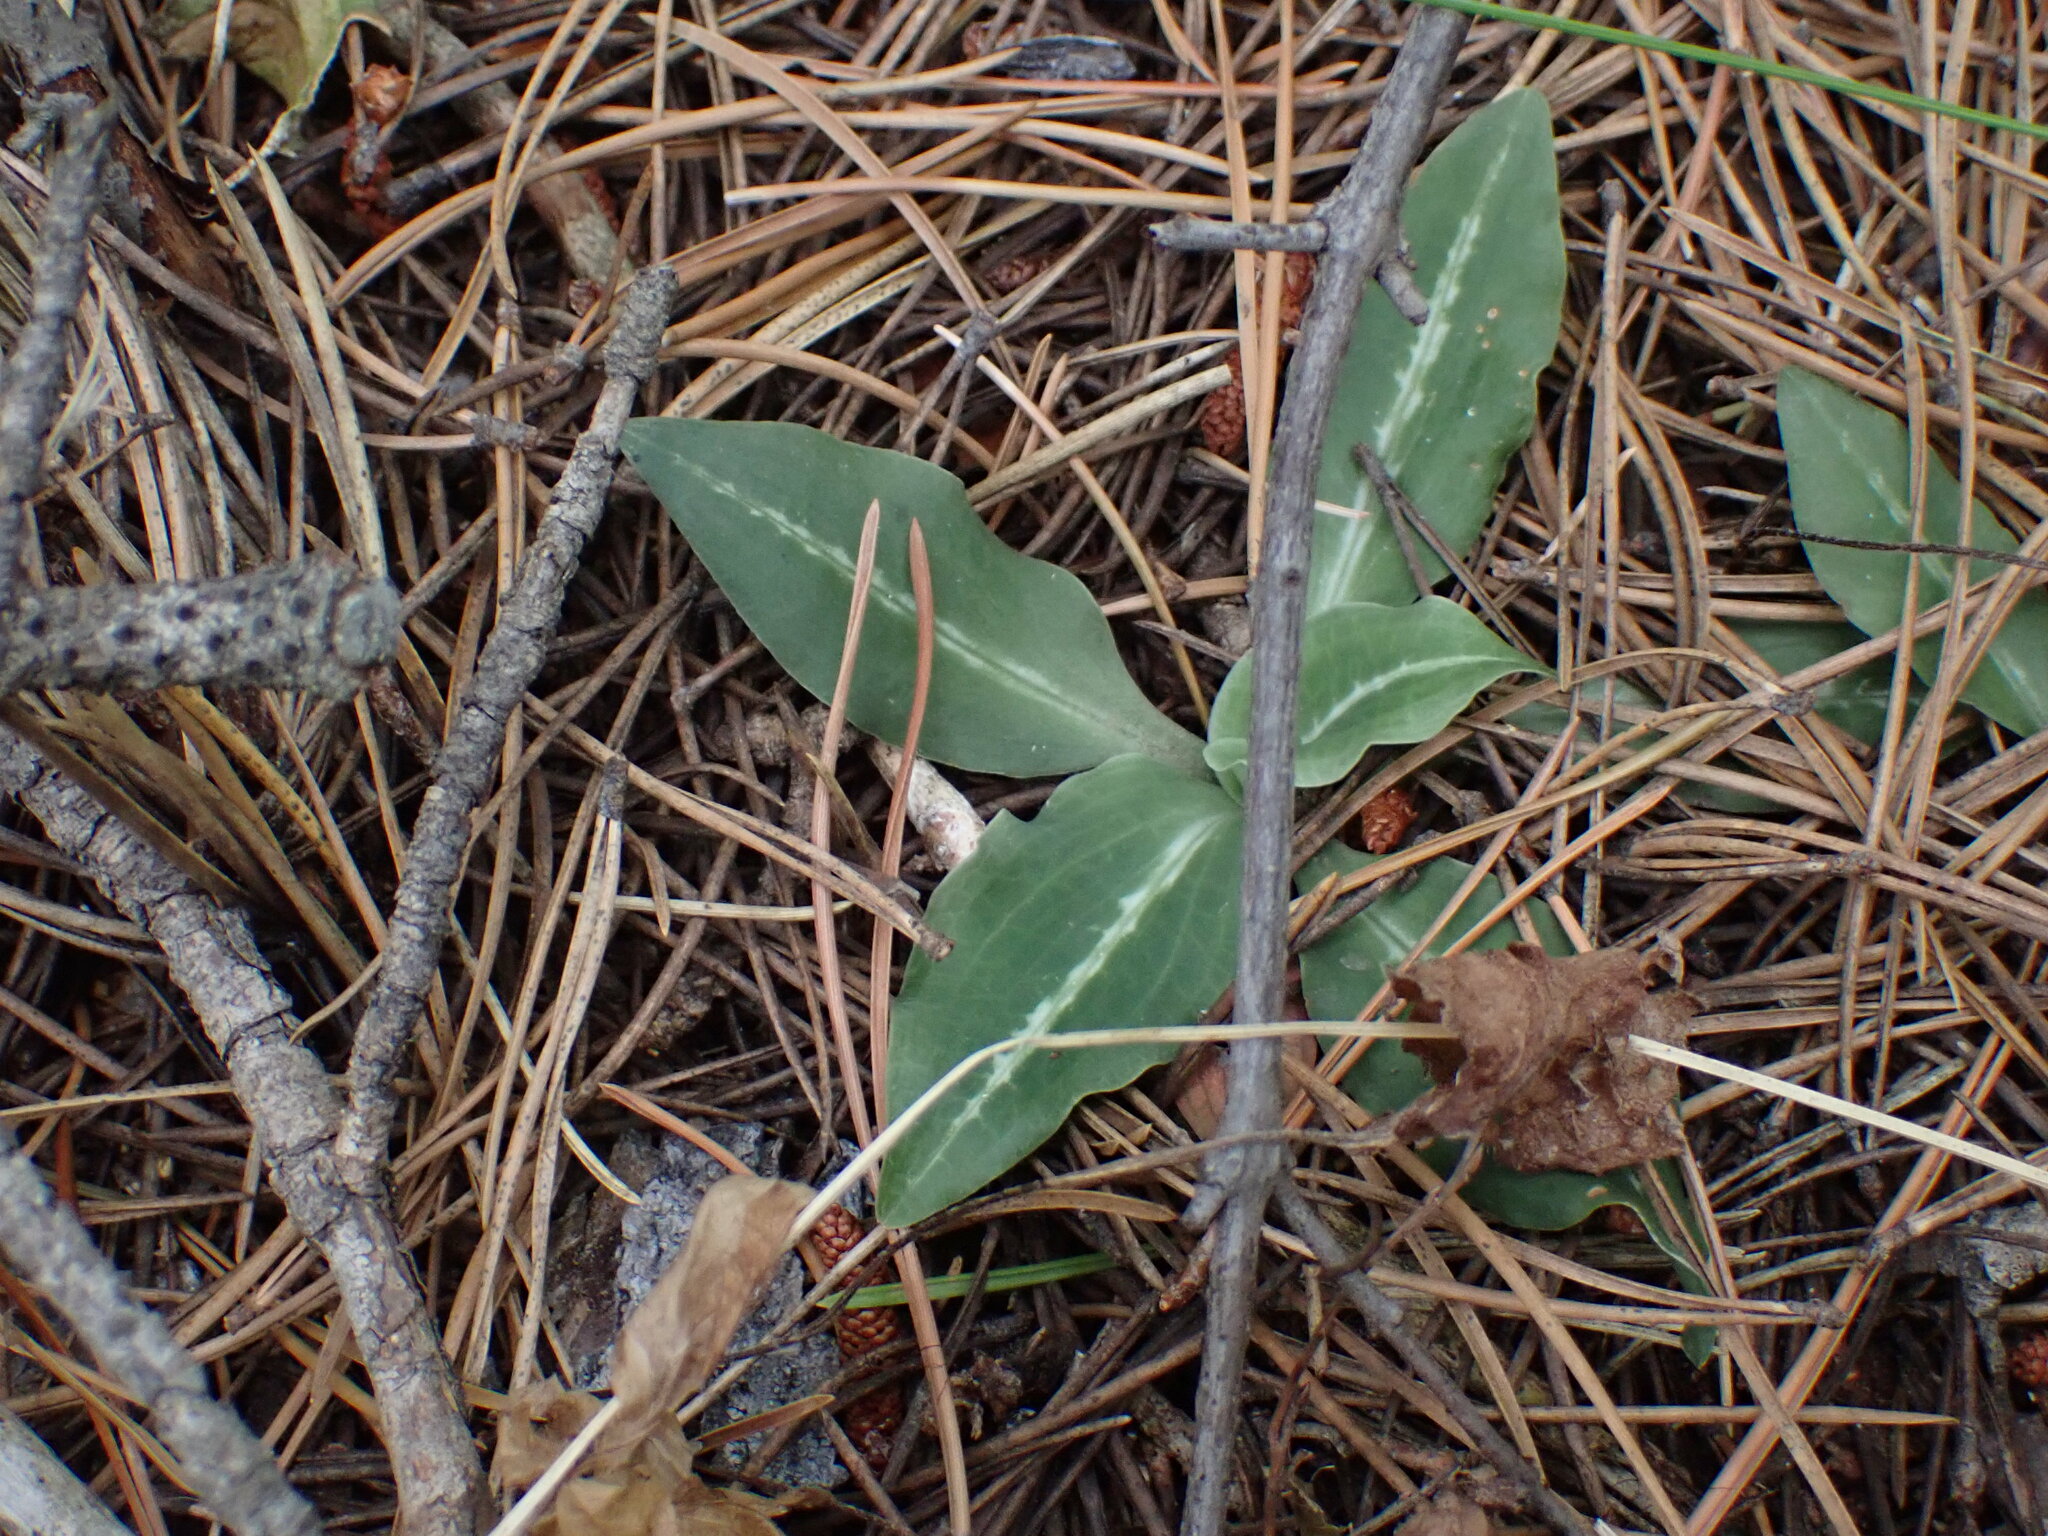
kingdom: Plantae
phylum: Tracheophyta
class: Liliopsida
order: Asparagales
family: Orchidaceae
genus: Goodyera
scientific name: Goodyera oblongifolia
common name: Giant rattlesnake-plantain
